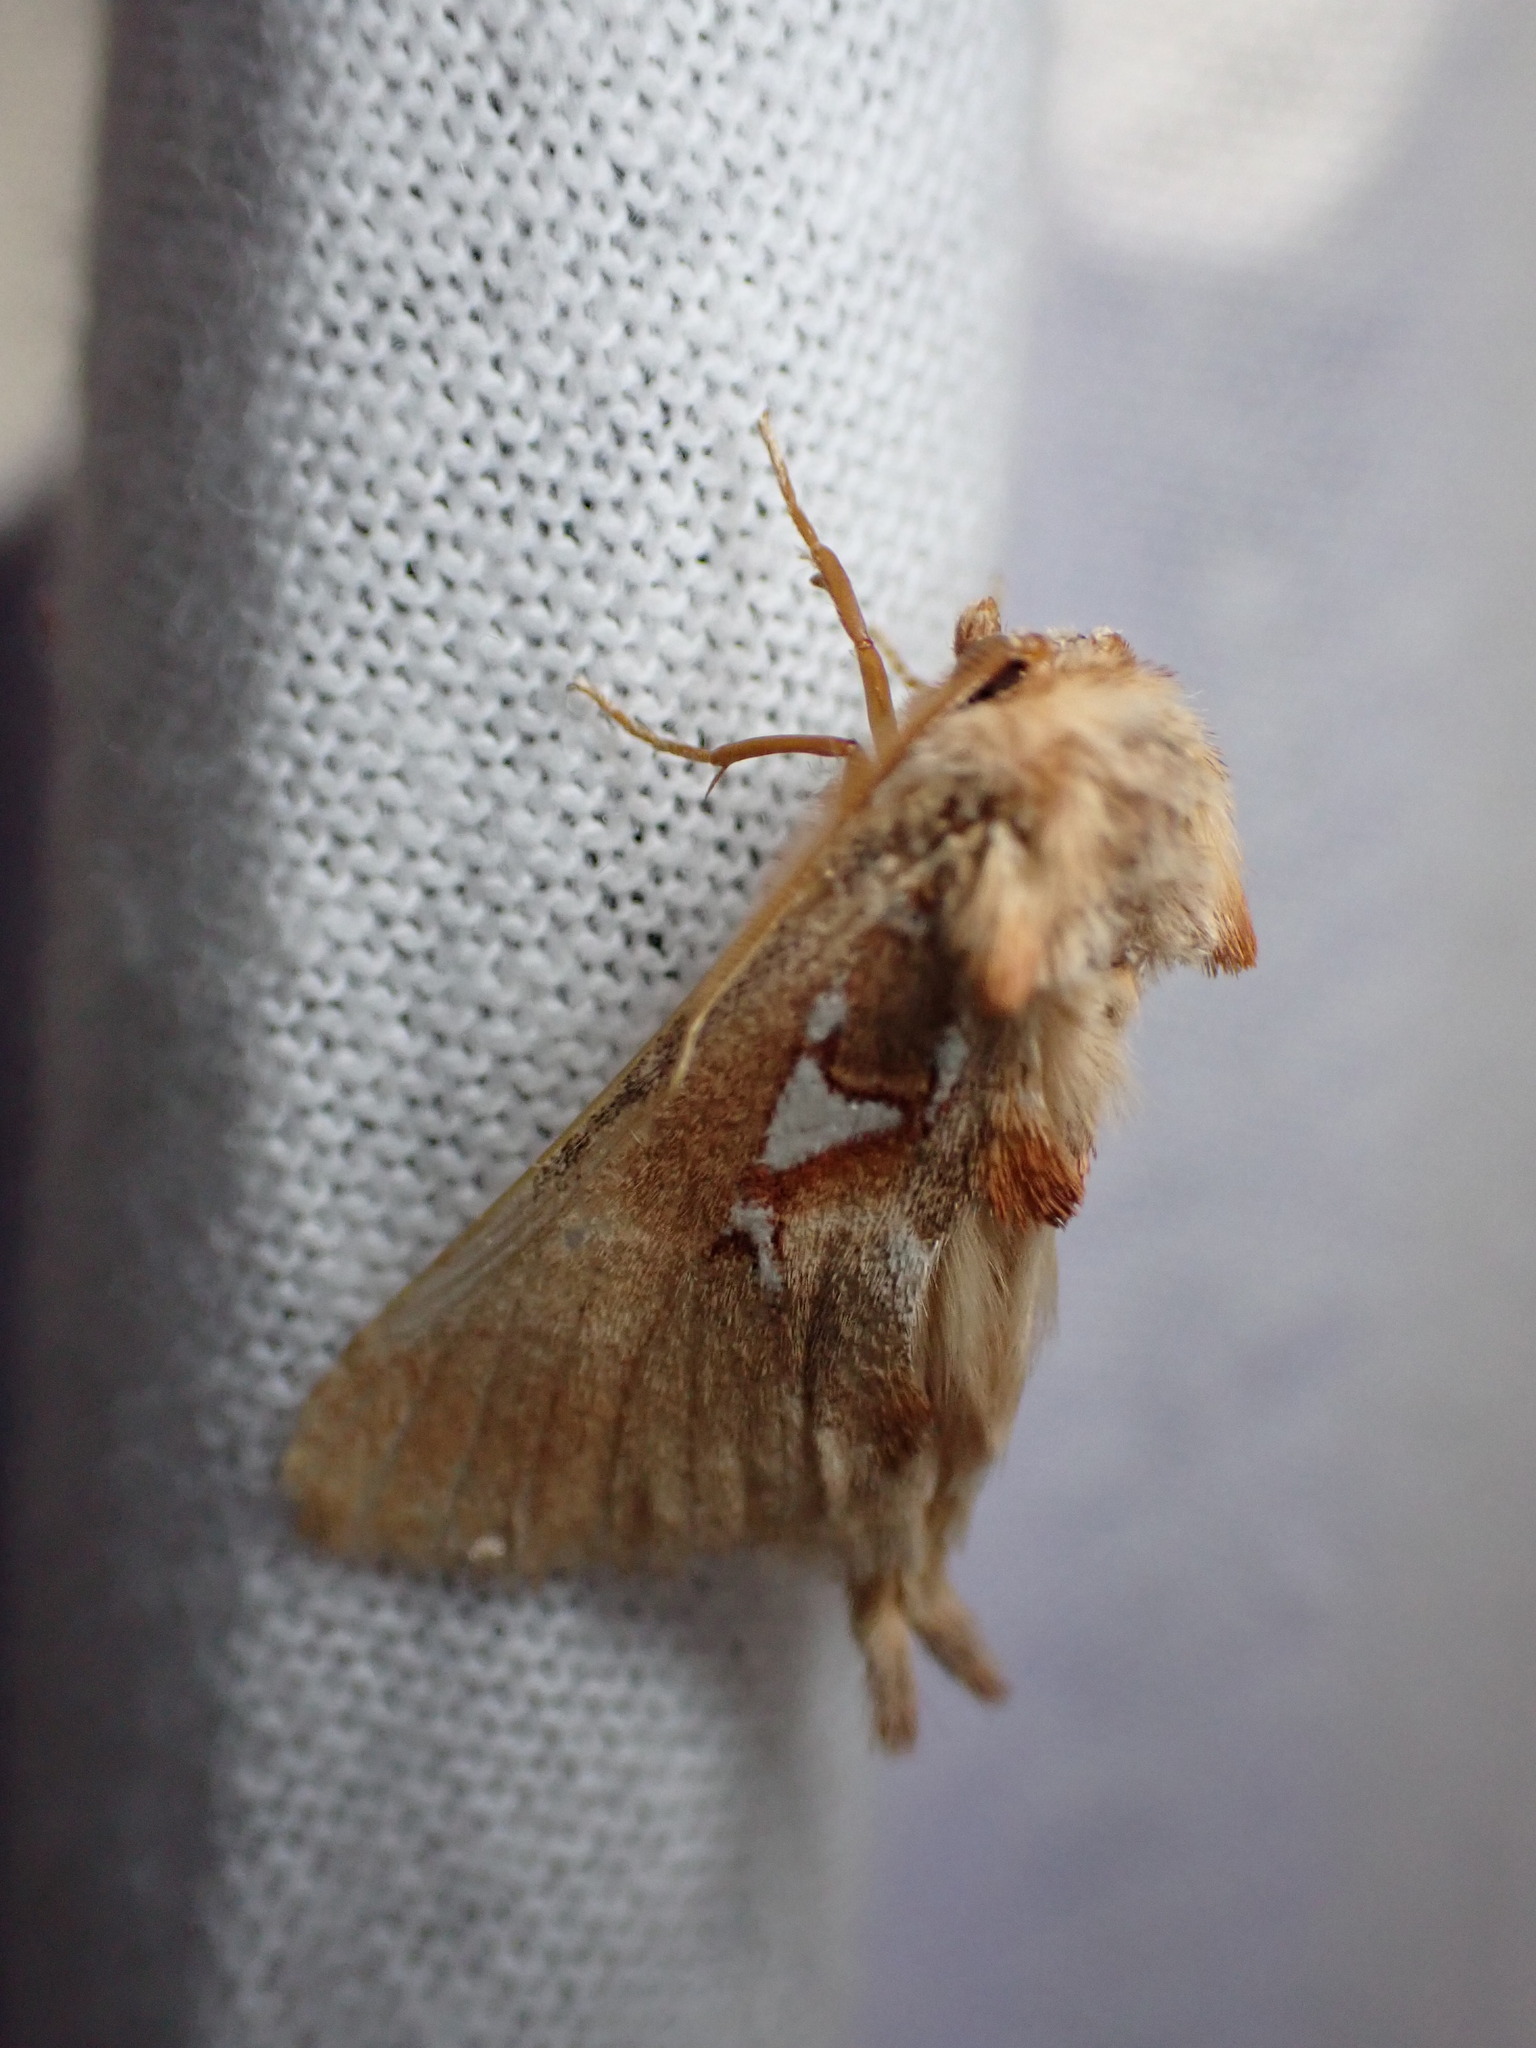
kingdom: Animalia
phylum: Arthropoda
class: Insecta
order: Lepidoptera
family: Notodontidae
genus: Spatalia
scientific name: Spatalia argentina
